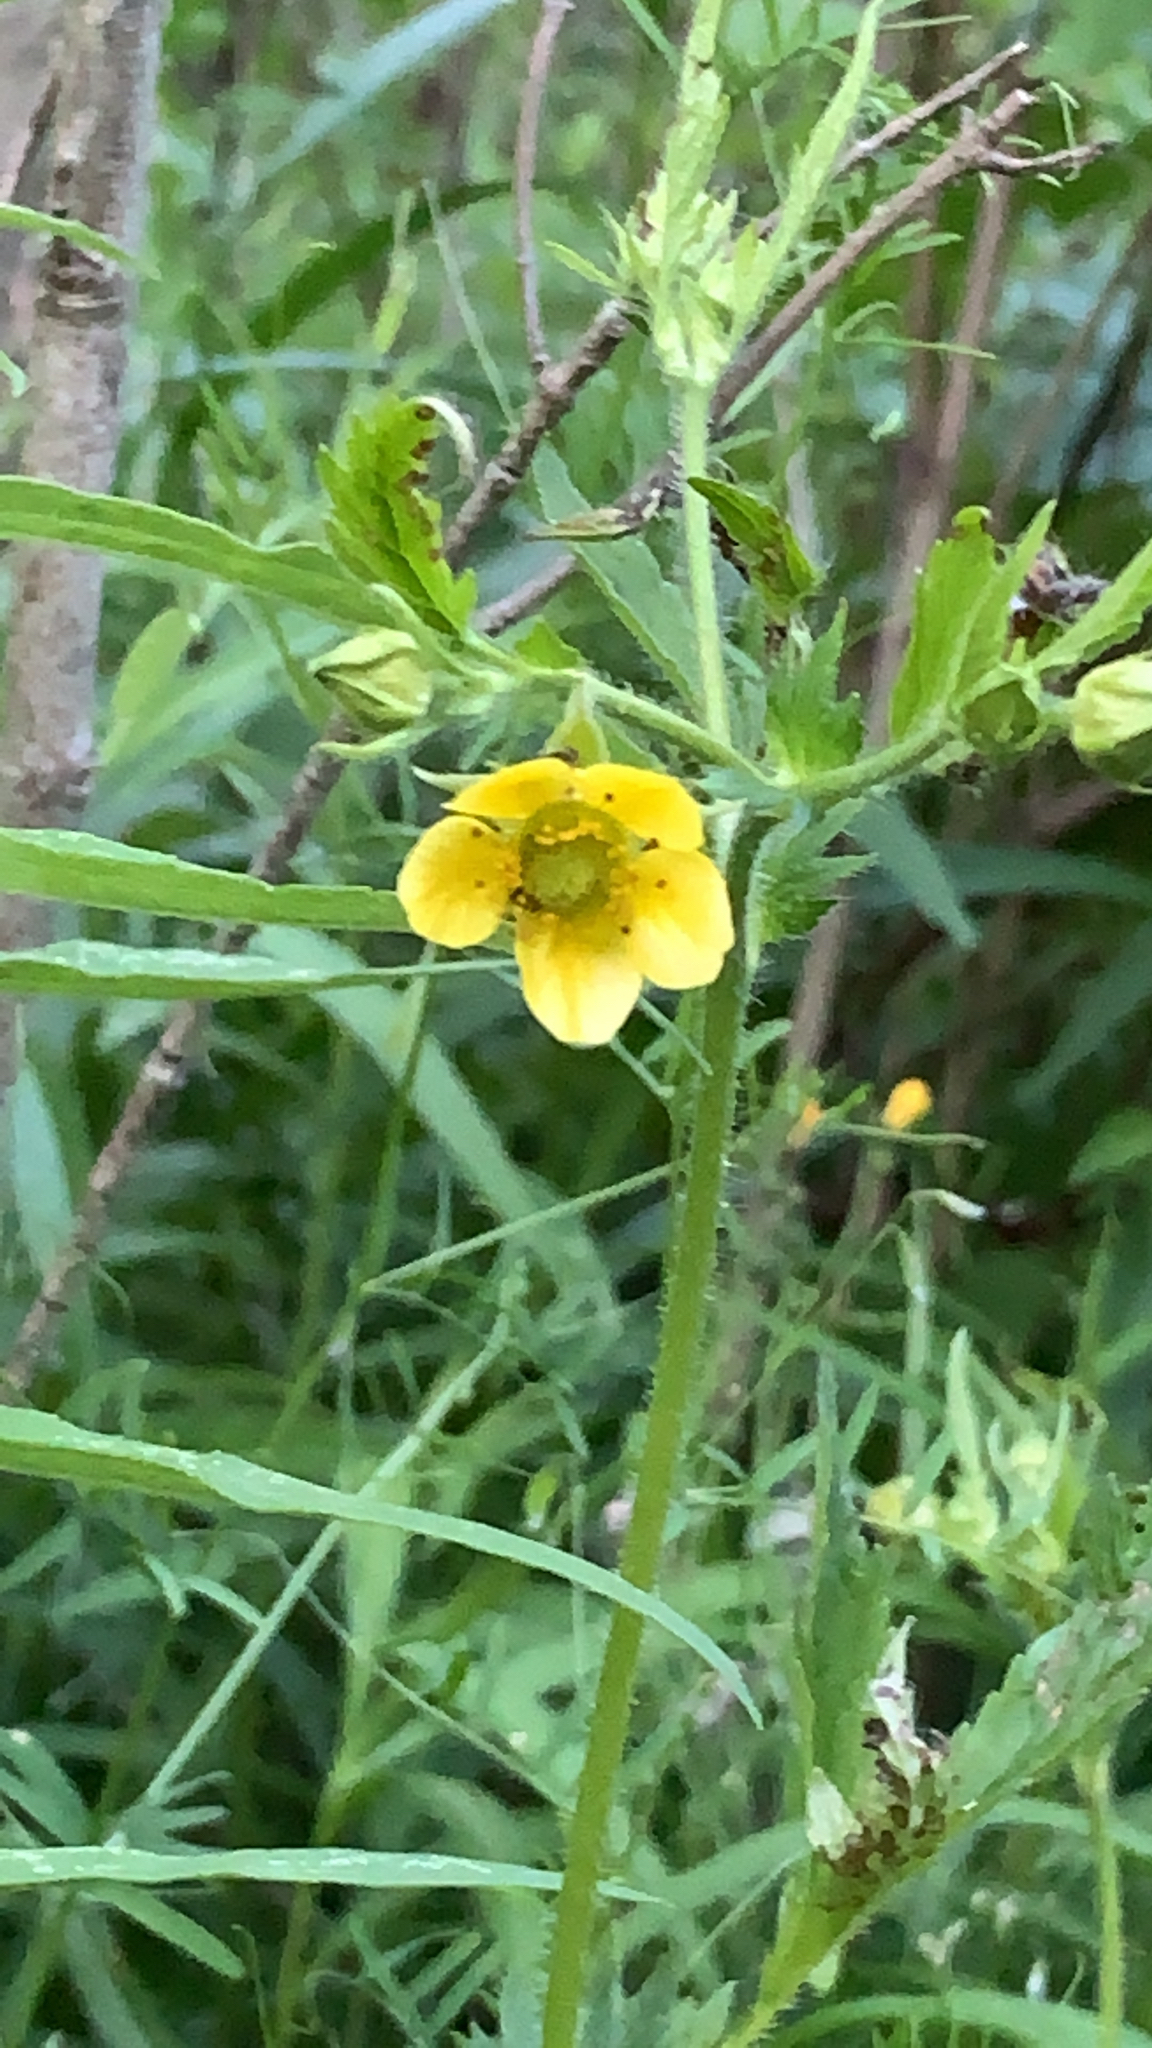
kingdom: Plantae
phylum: Tracheophyta
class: Magnoliopsida
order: Rosales
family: Rosaceae
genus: Geum
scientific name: Geum aleppicum
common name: Yellow avens
